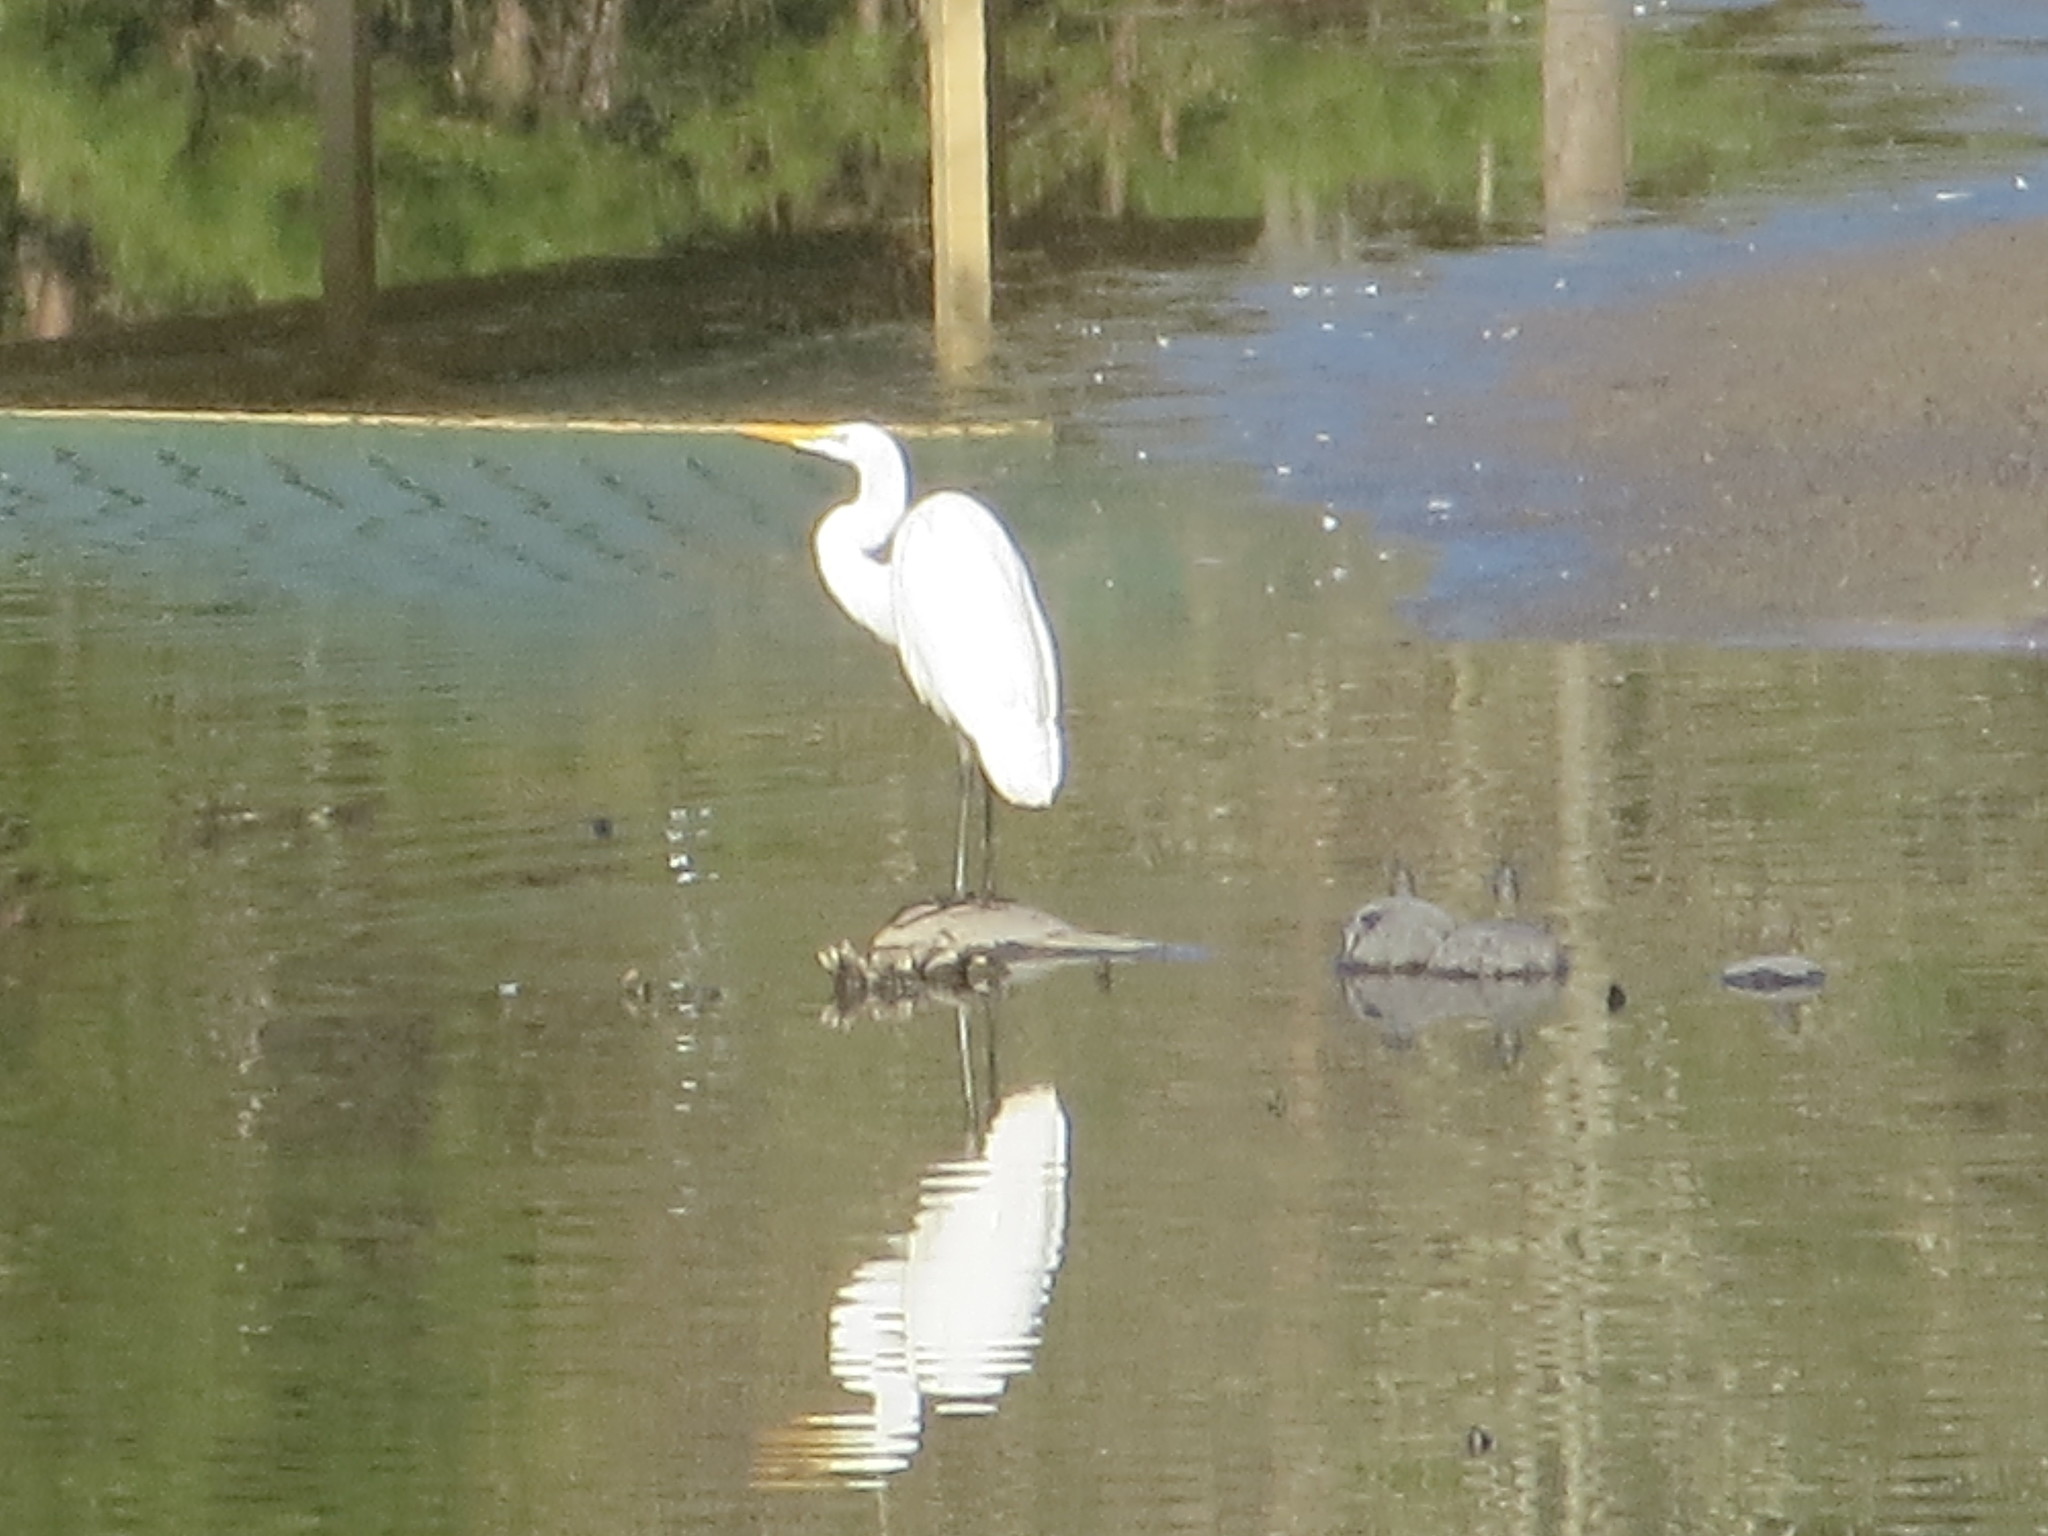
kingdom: Animalia
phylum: Chordata
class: Aves
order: Pelecaniformes
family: Ardeidae
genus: Ardea
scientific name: Ardea alba
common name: Great egret
